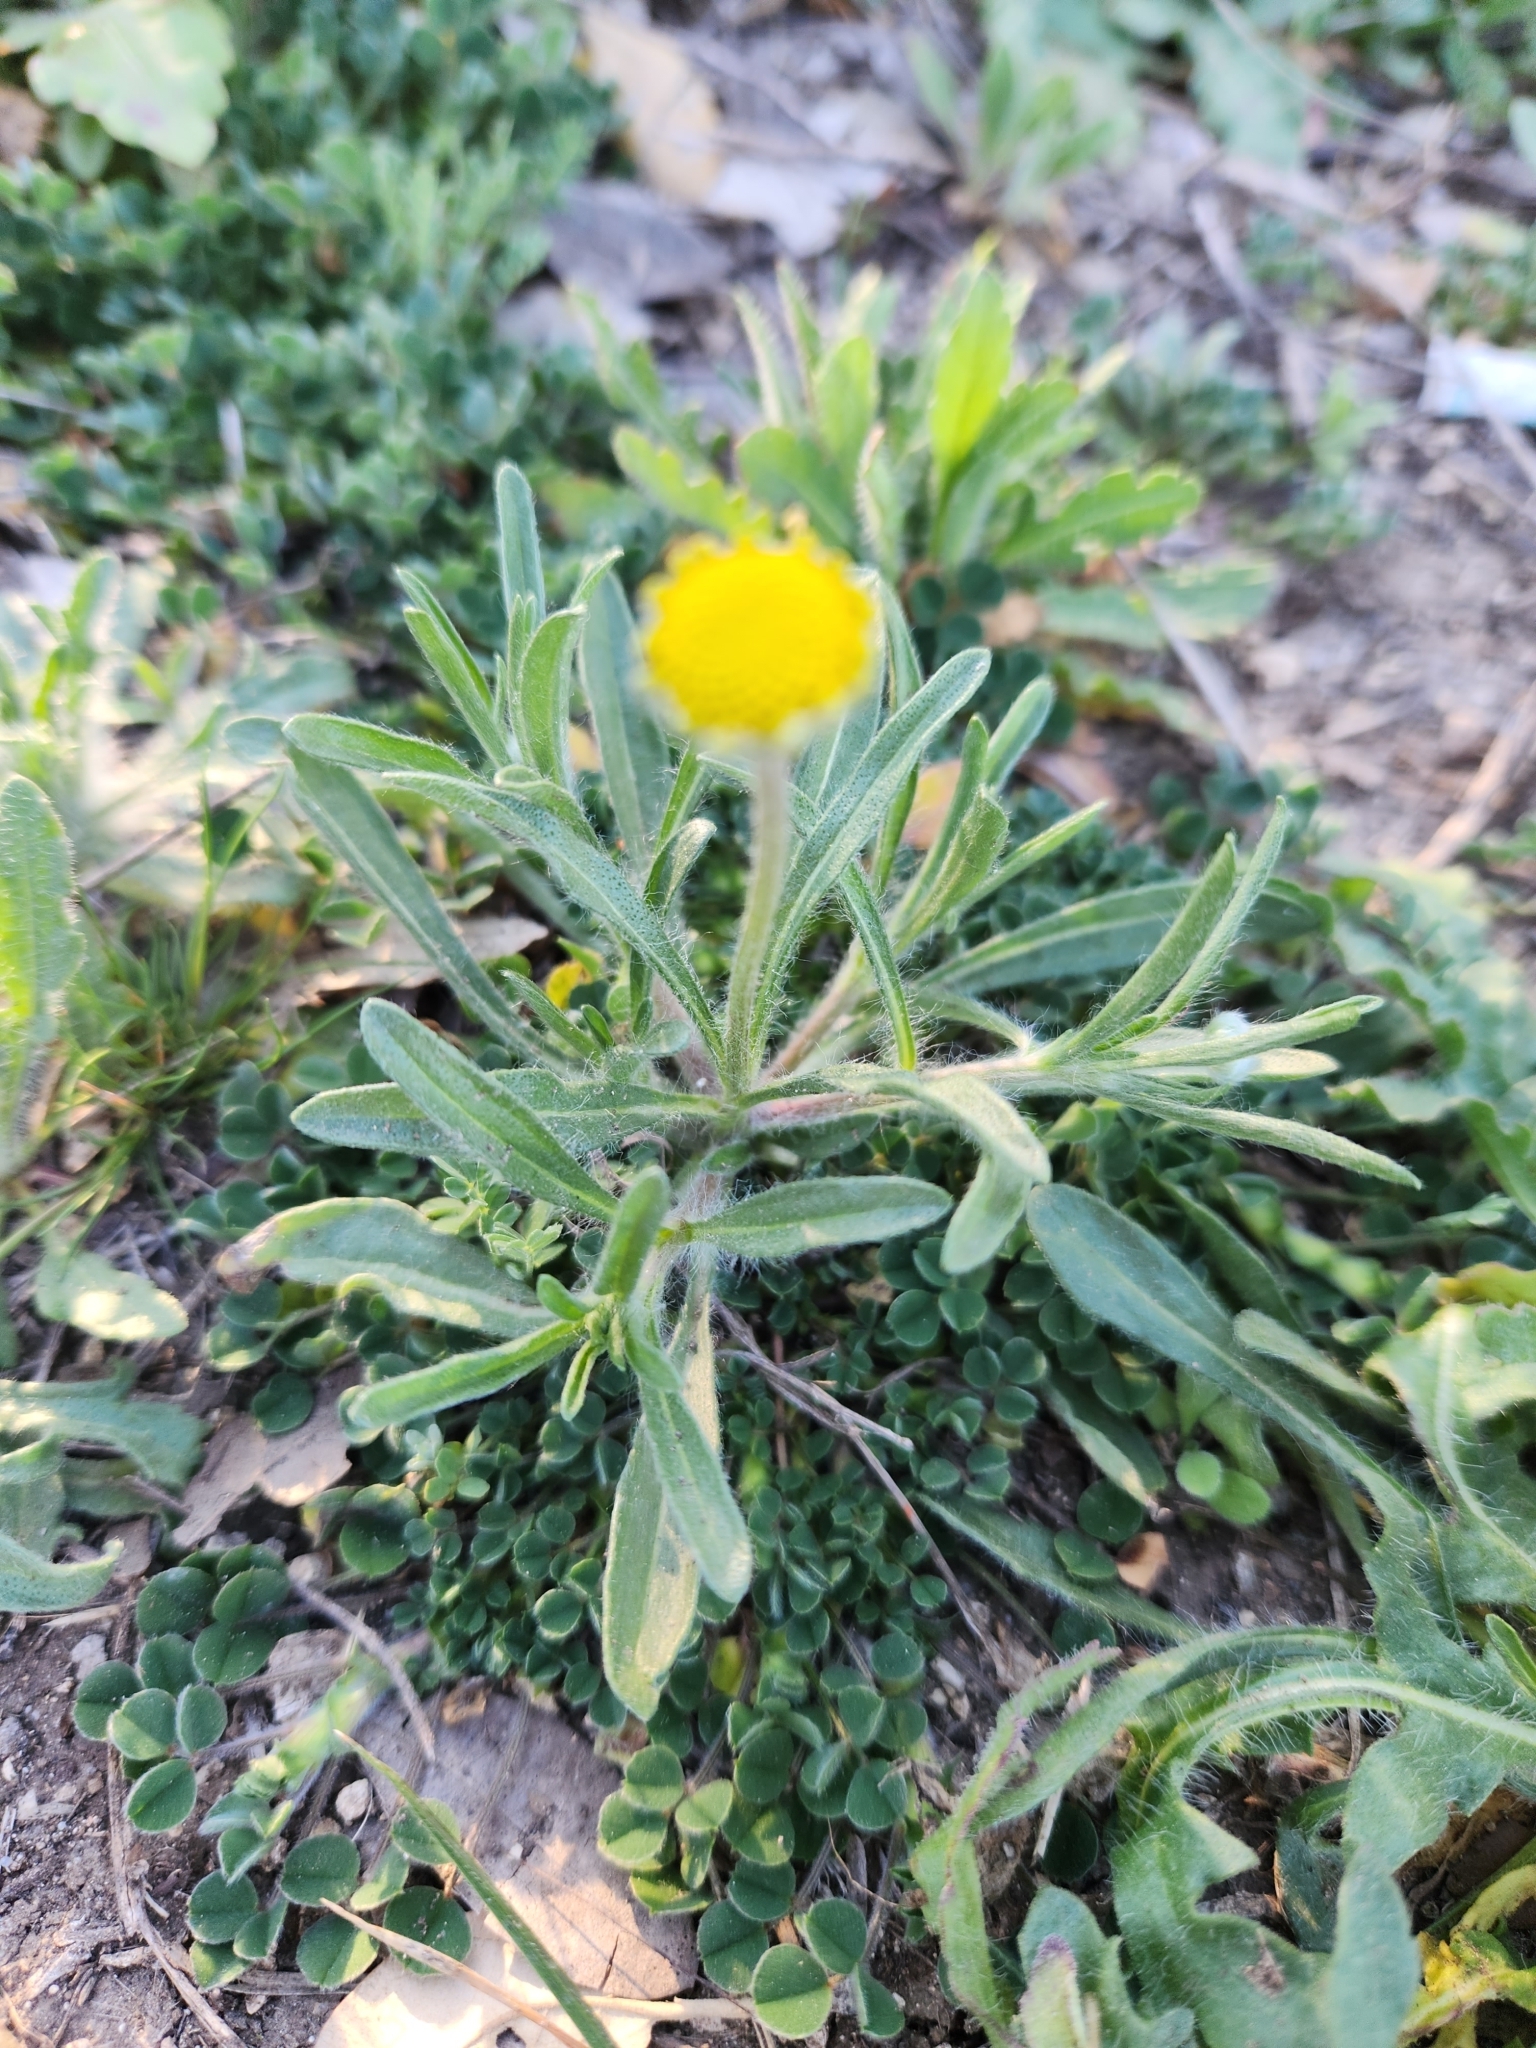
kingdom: Plantae
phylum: Tracheophyta
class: Magnoliopsida
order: Asterales
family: Asteraceae
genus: Tetraneuris
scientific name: Tetraneuris linearifolia
